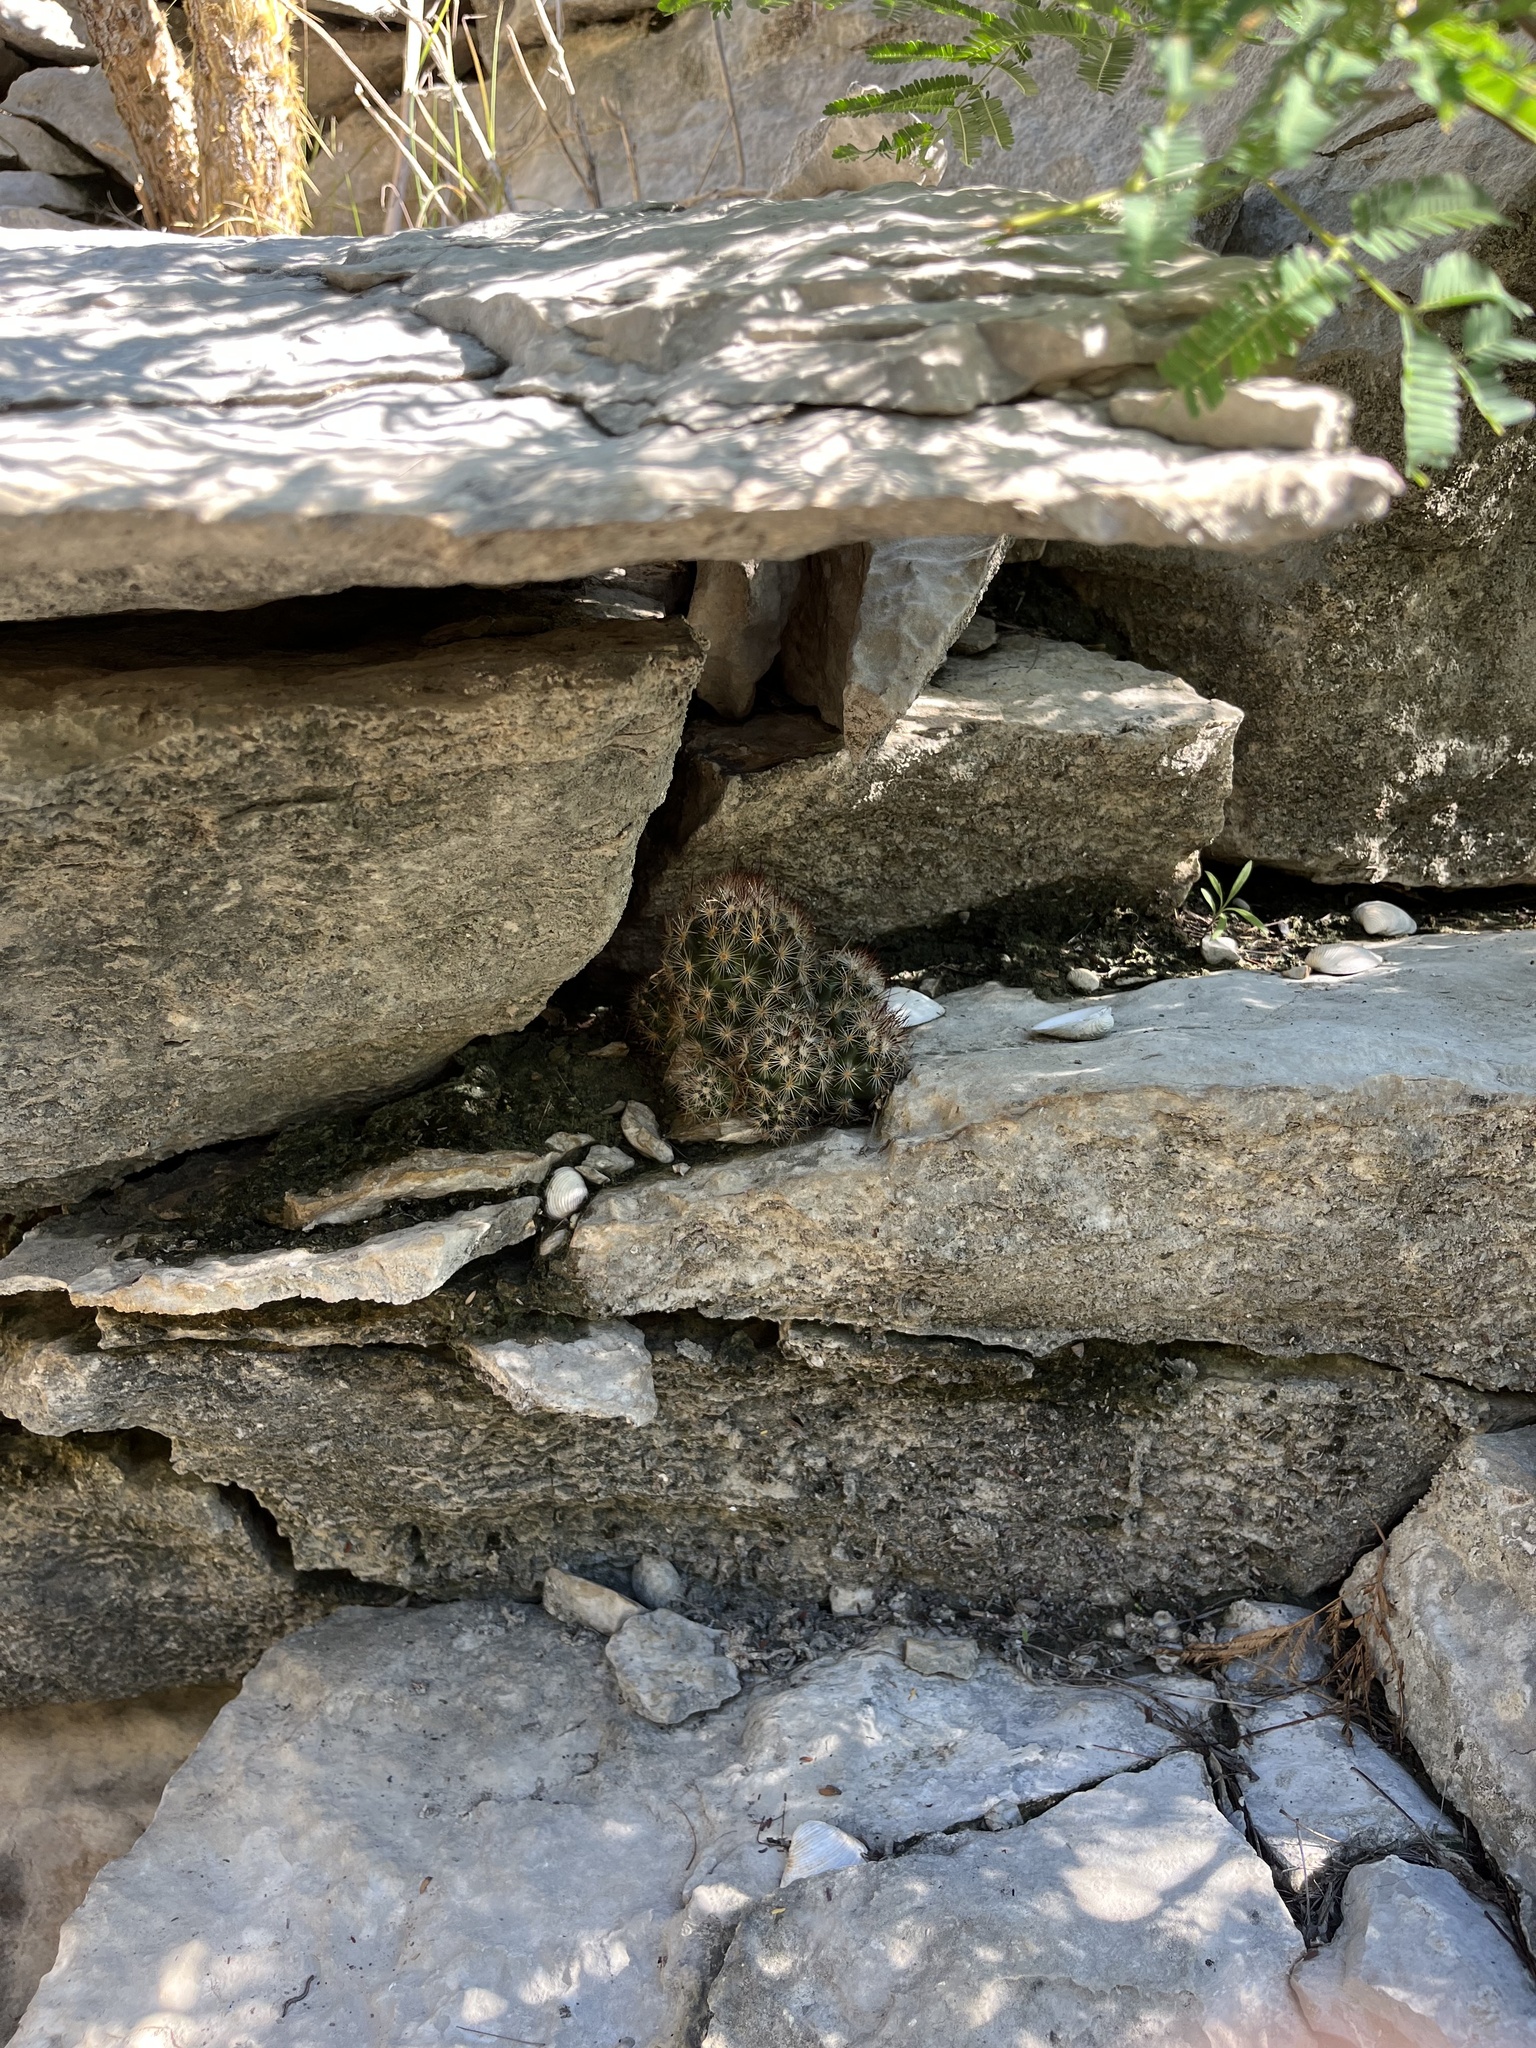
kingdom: Plantae
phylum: Tracheophyta
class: Magnoliopsida
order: Caryophyllales
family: Cactaceae
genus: Pelecyphora
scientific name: Pelecyphora emskoetteriana
